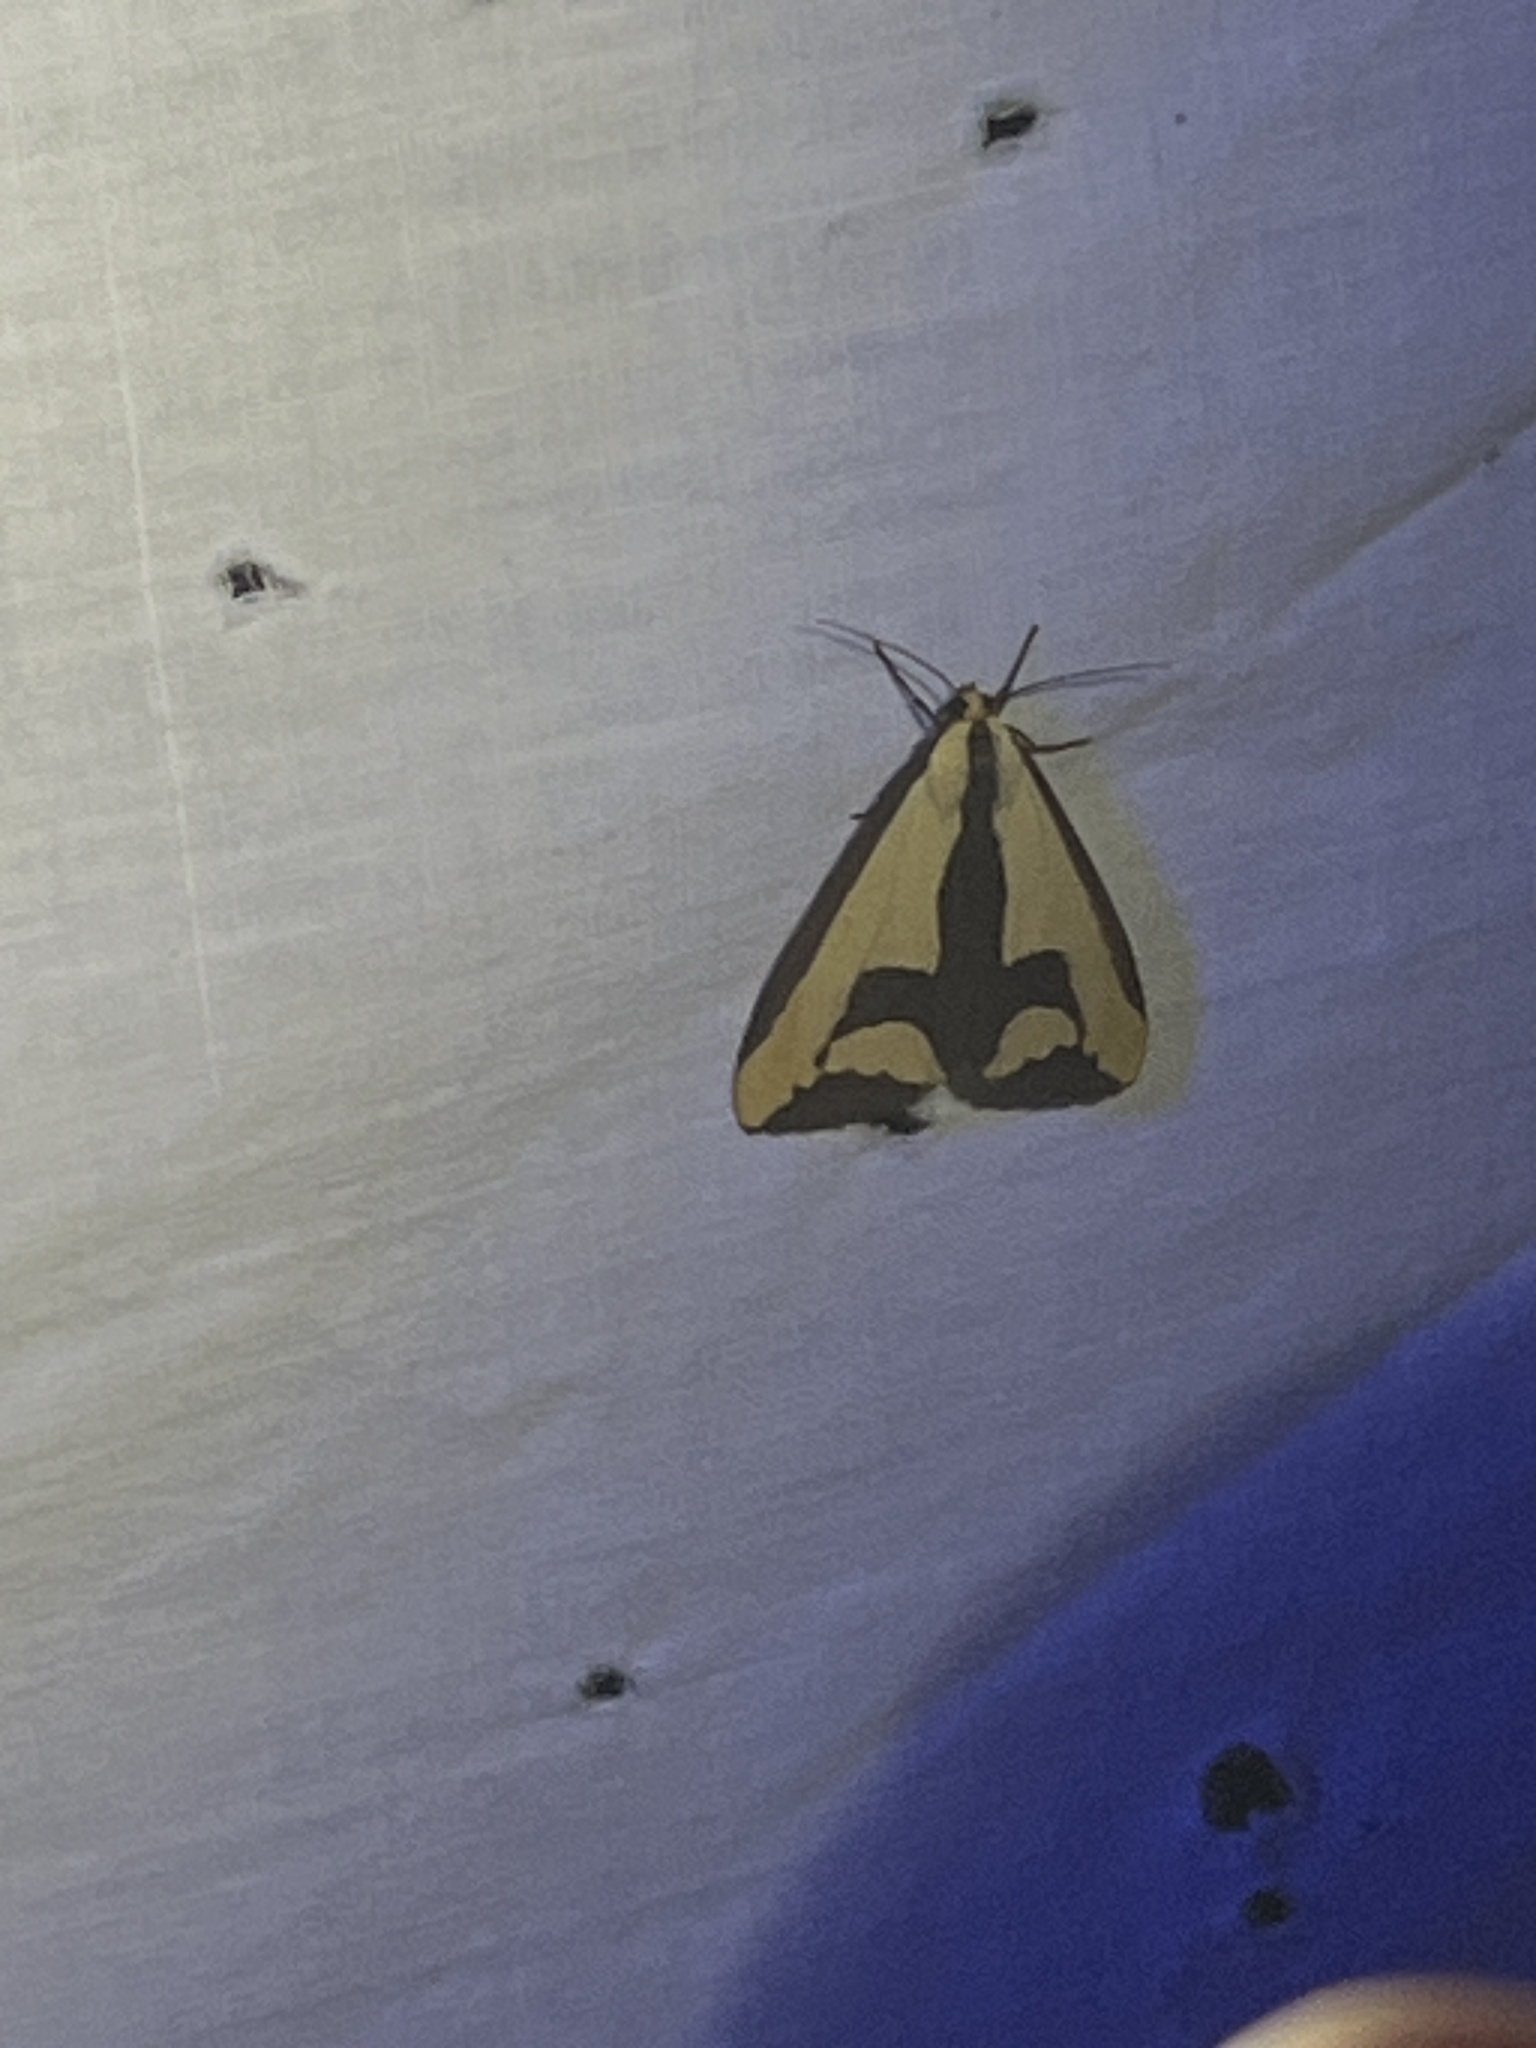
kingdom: Animalia
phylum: Arthropoda
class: Insecta
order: Lepidoptera
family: Erebidae
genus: Haploa
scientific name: Haploa clymene
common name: Clymene moth
